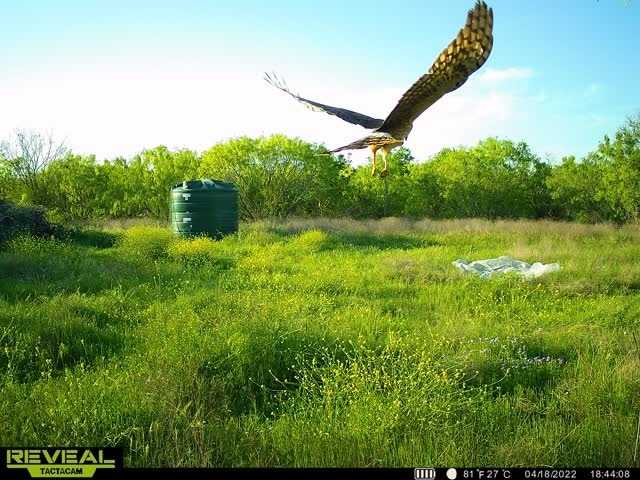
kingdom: Animalia
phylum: Chordata
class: Aves
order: Accipitriformes
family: Accipitridae
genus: Circus
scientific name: Circus cyaneus
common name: Hen harrier
